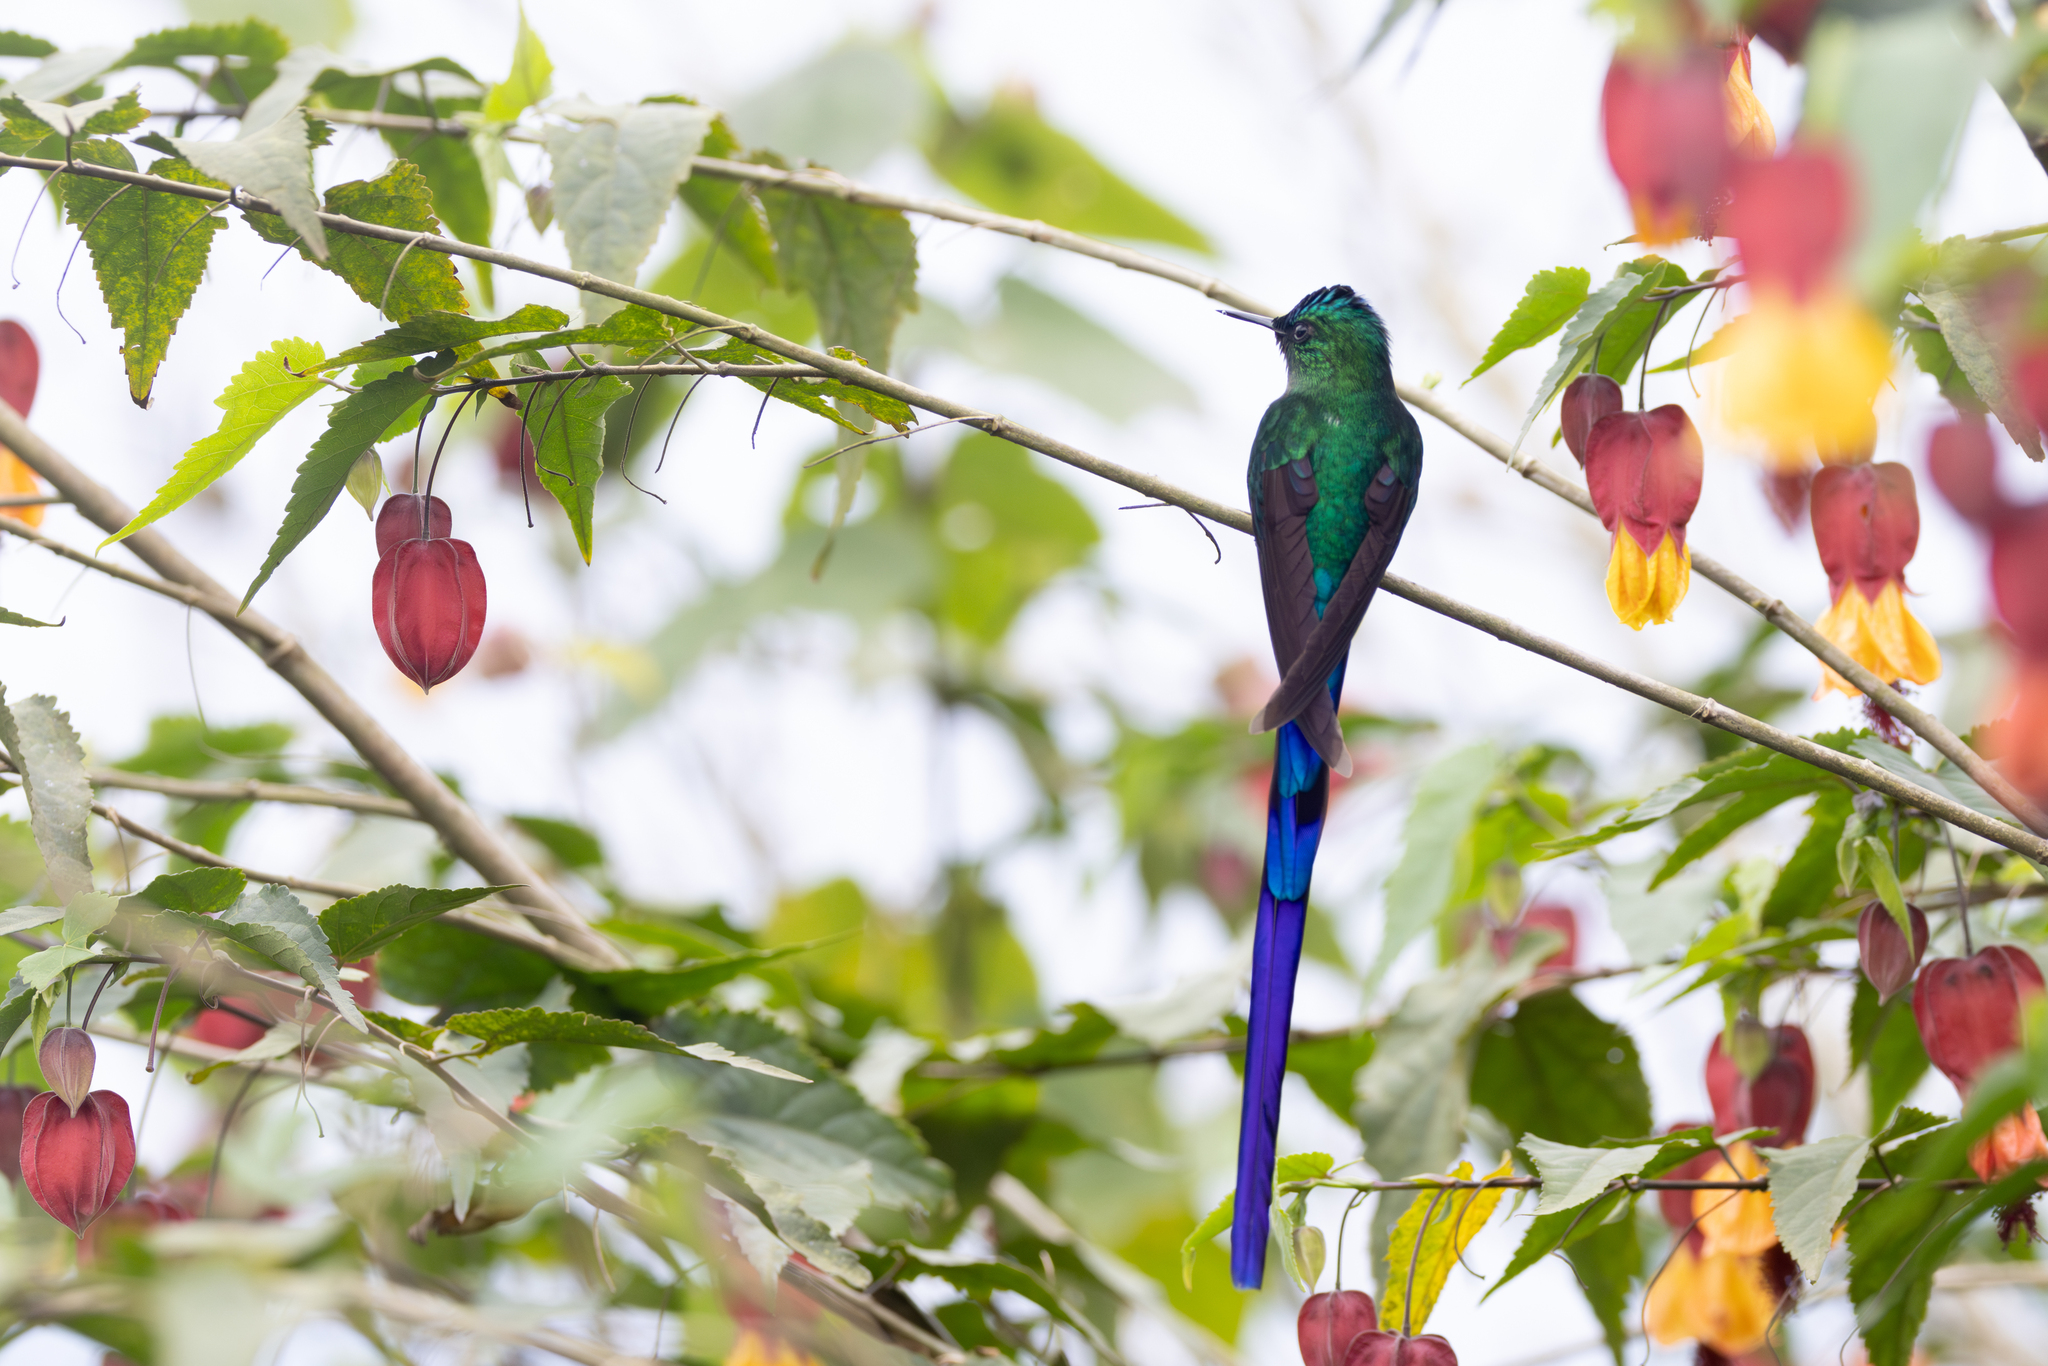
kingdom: Animalia
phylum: Chordata
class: Aves
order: Apodiformes
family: Trochilidae
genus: Aglaiocercus
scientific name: Aglaiocercus kingii
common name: Long-tailed sylph
